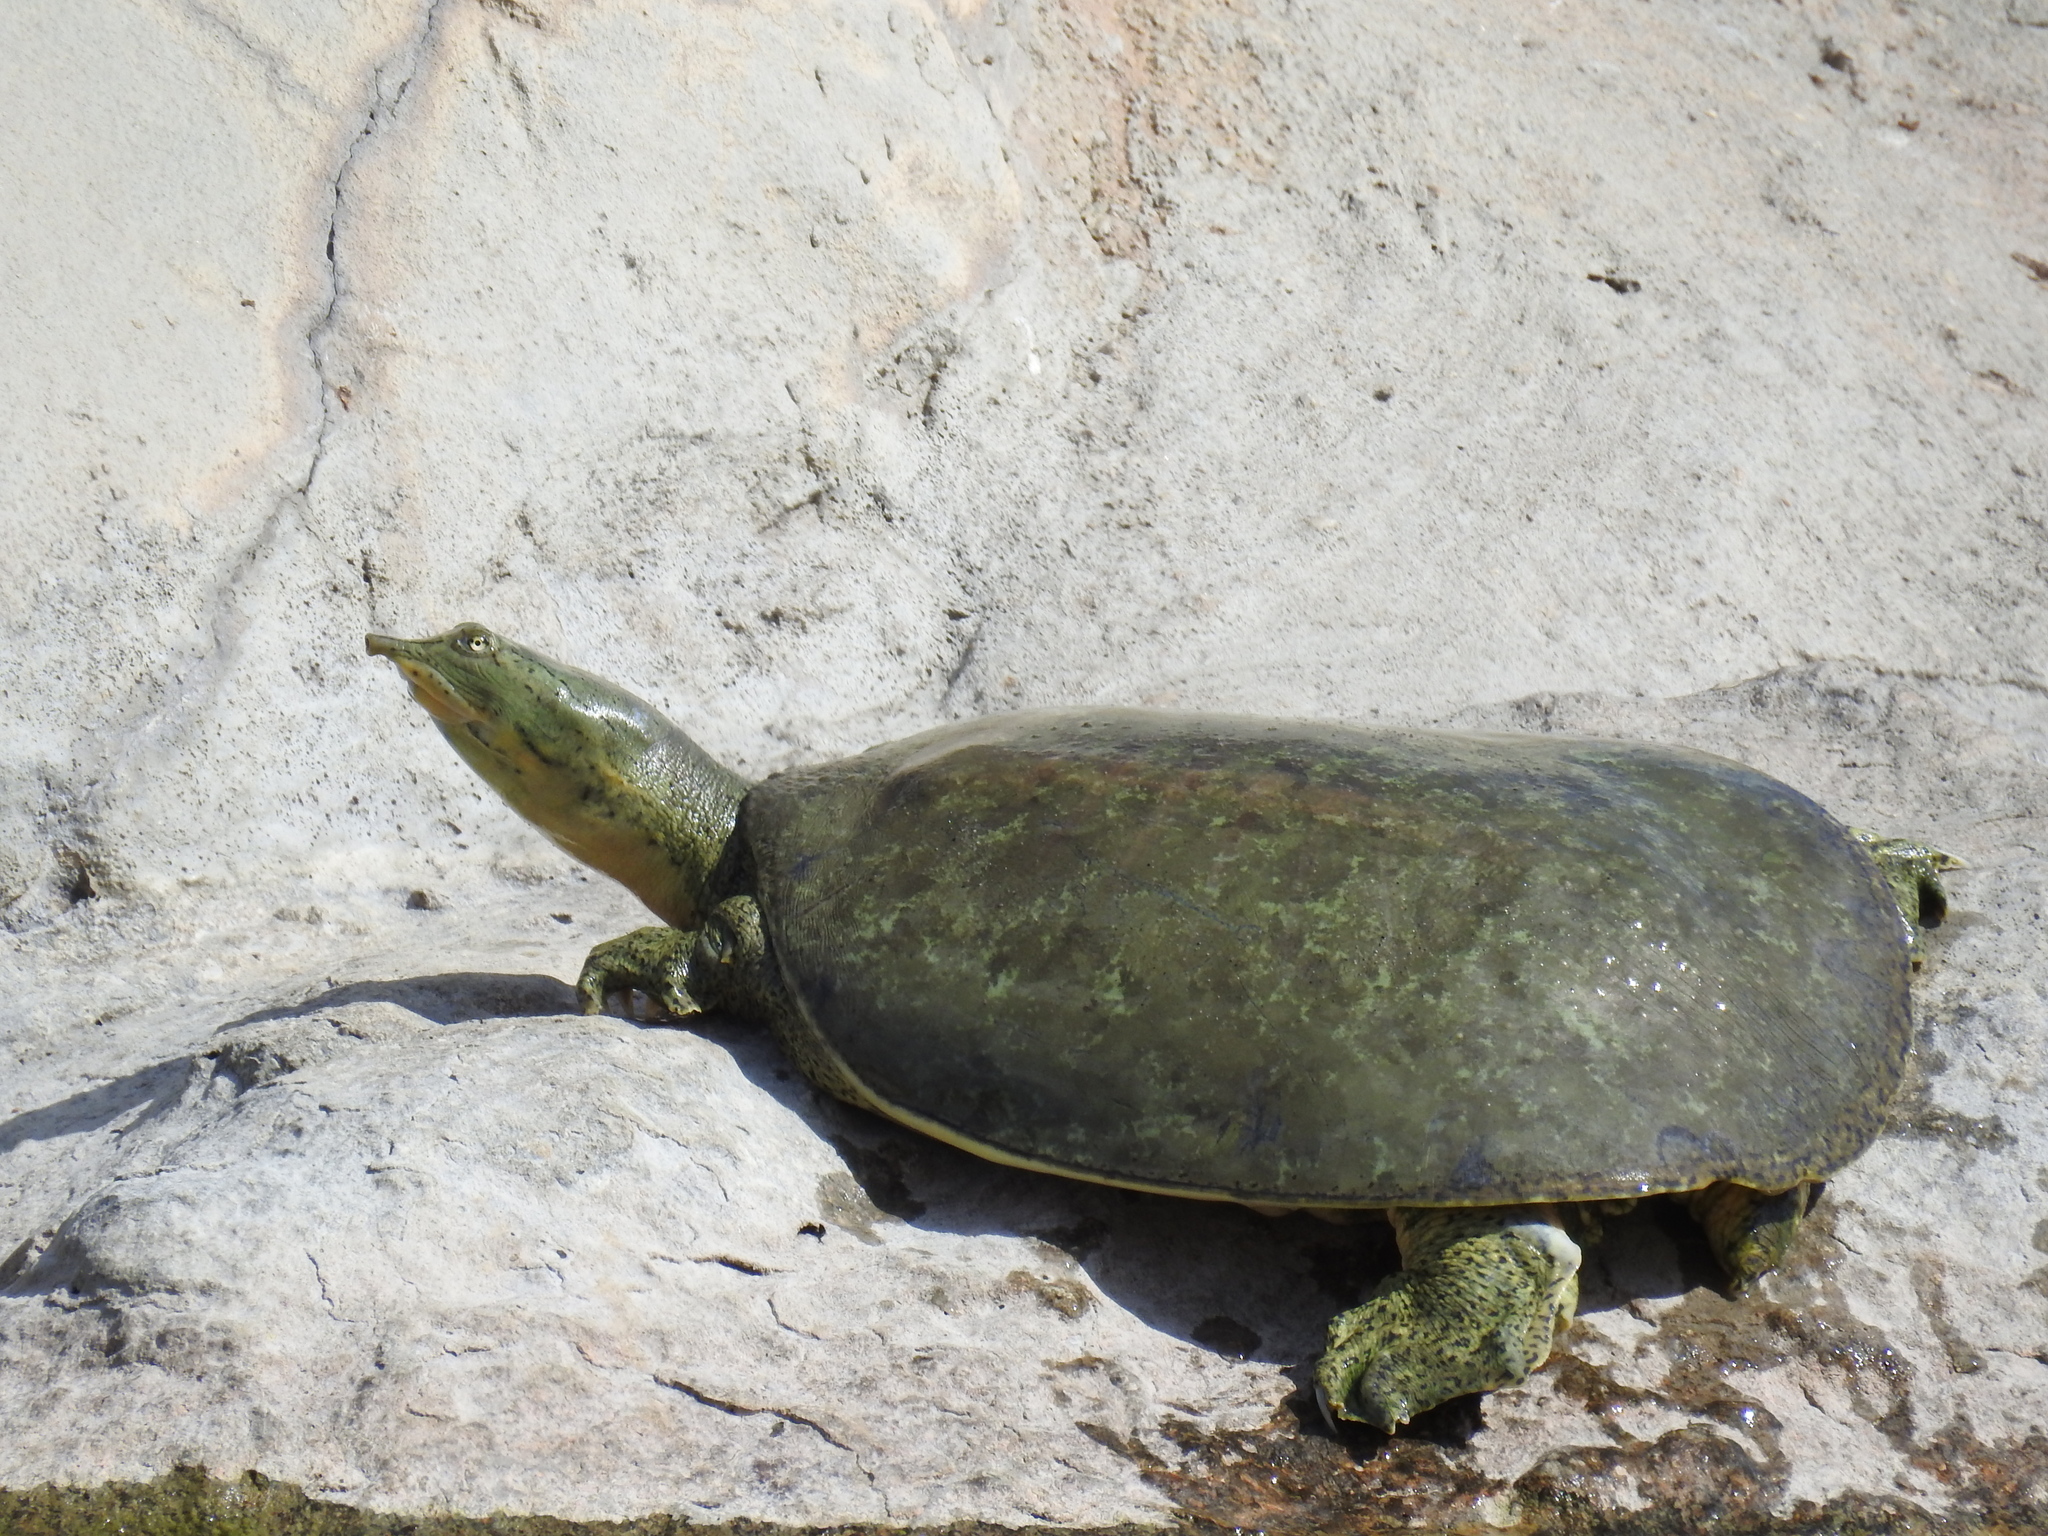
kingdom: Animalia
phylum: Chordata
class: Testudines
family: Trionychidae
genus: Apalone
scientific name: Apalone spinifera
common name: Spiny softshell turtle
